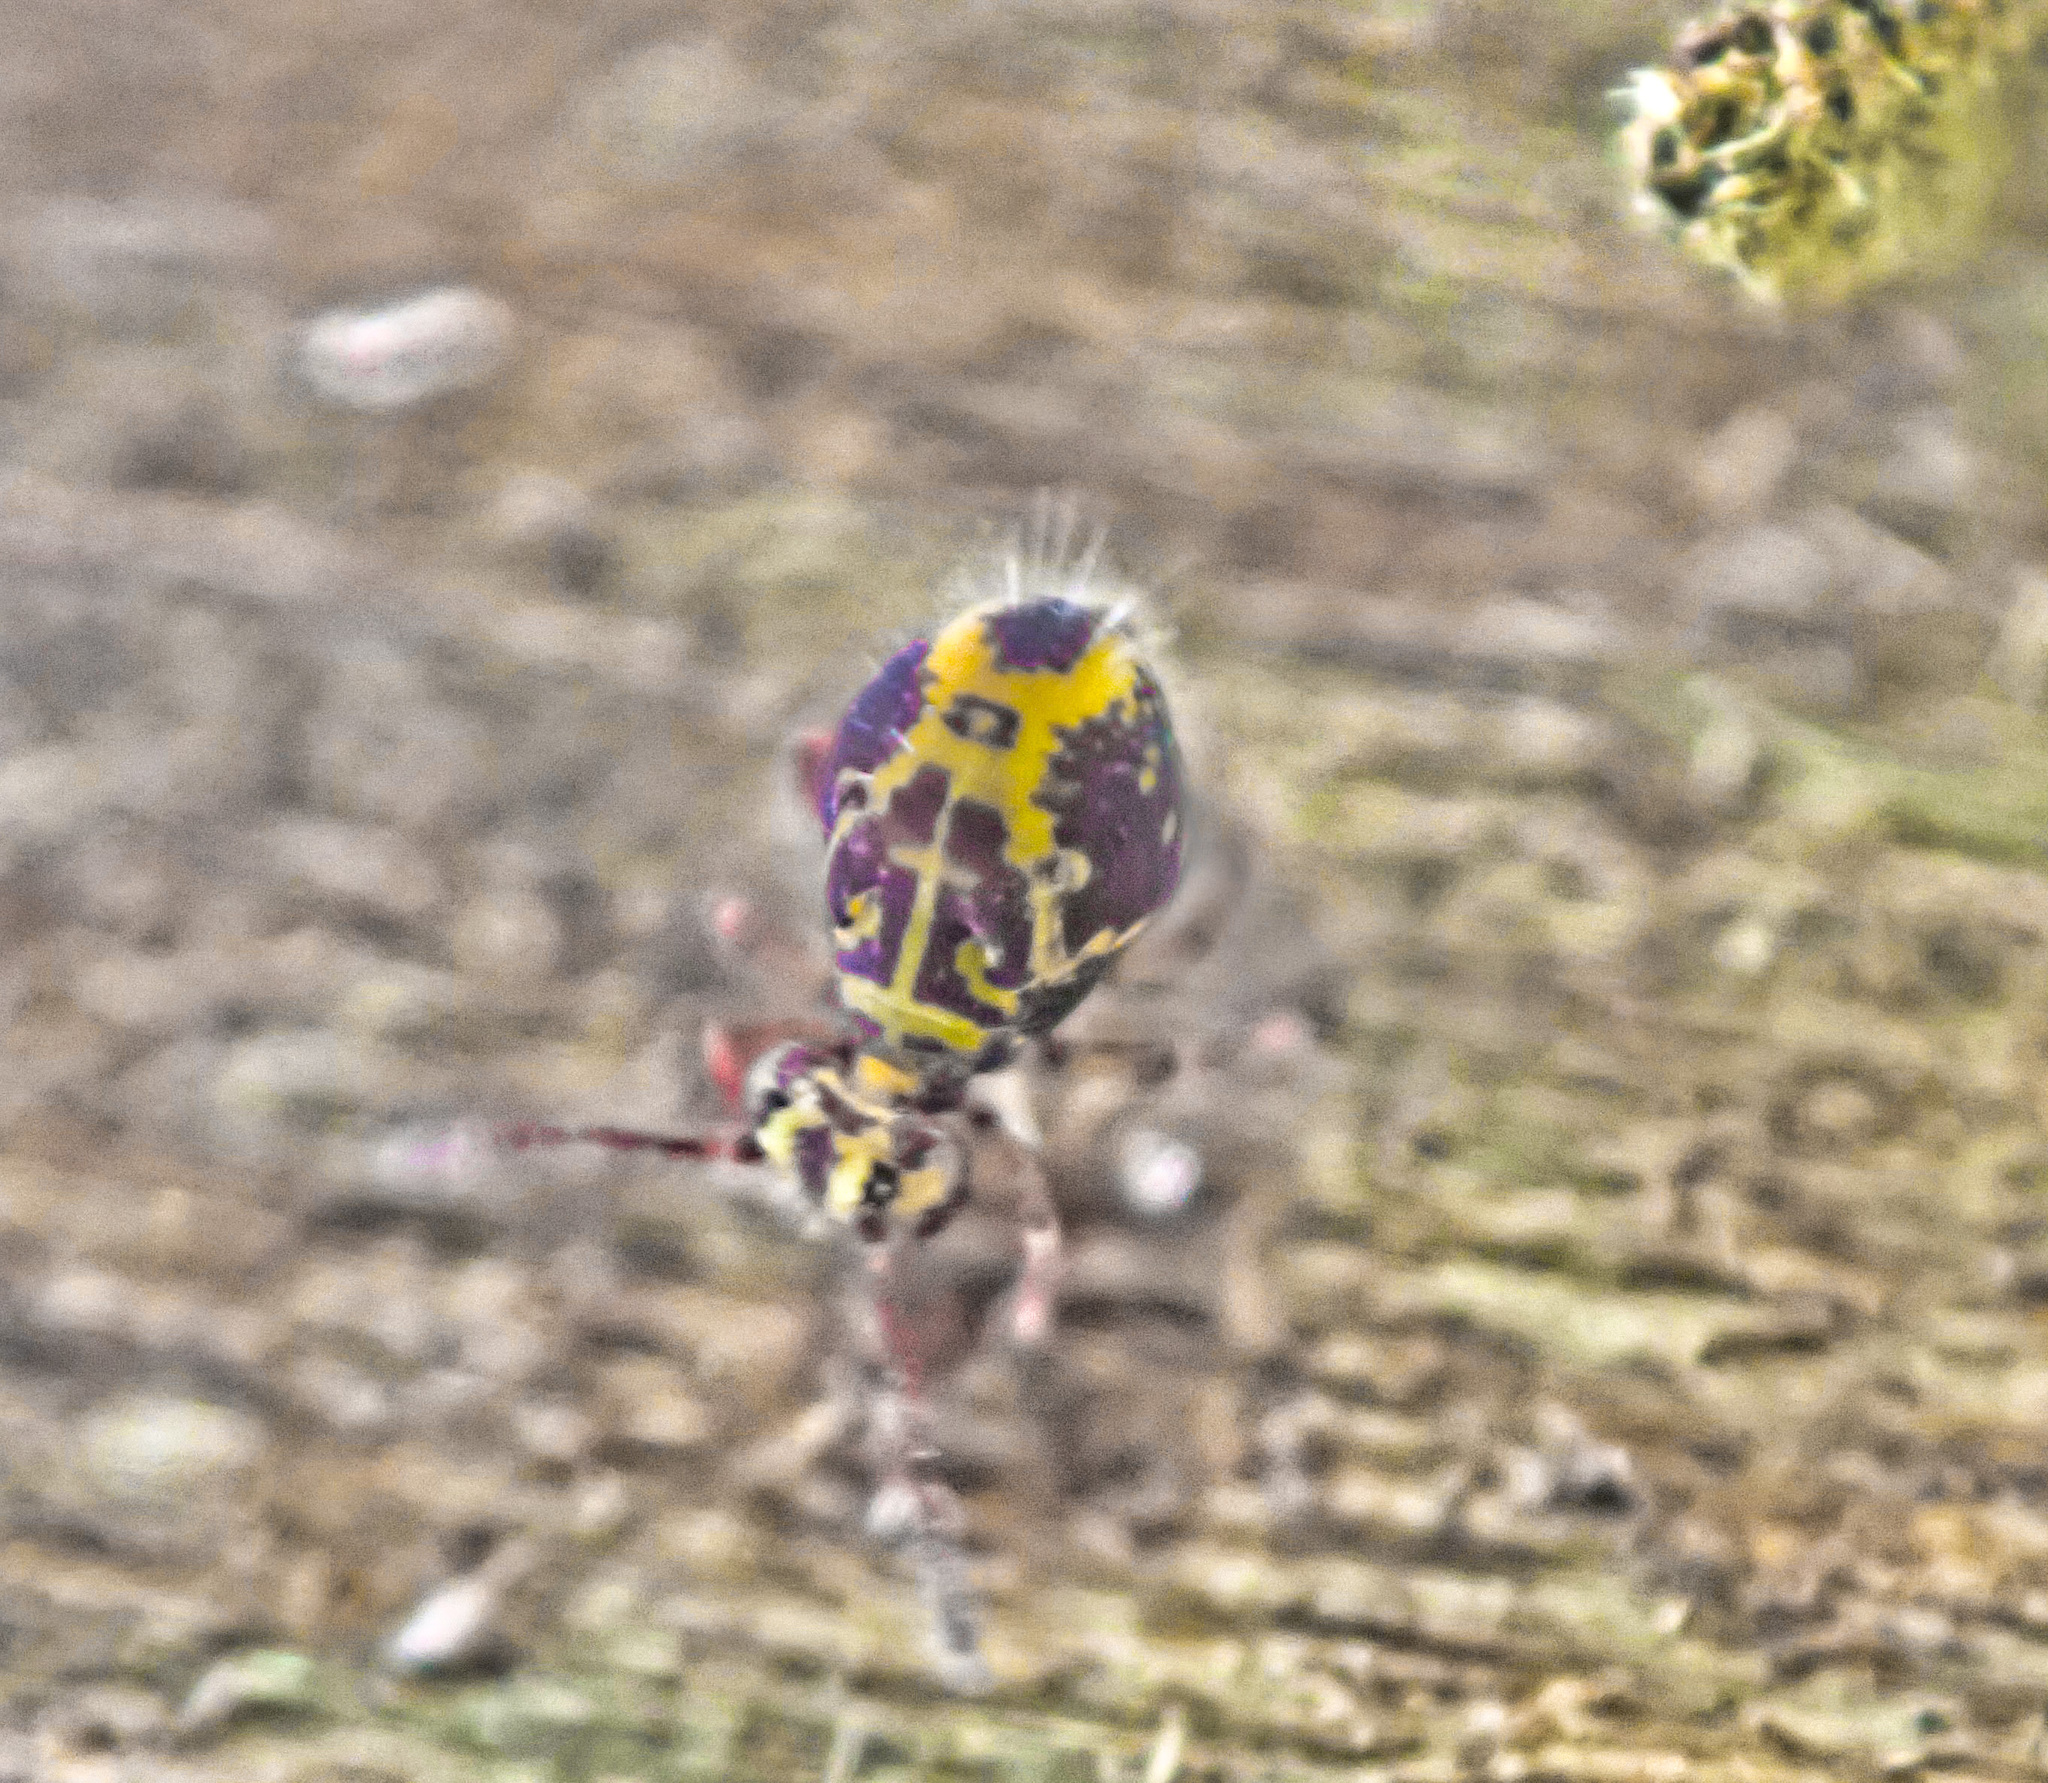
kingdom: Animalia
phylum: Arthropoda
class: Collembola
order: Symphypleona
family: Dicyrtomidae
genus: Dicyrtomina
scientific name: Dicyrtomina minuta
